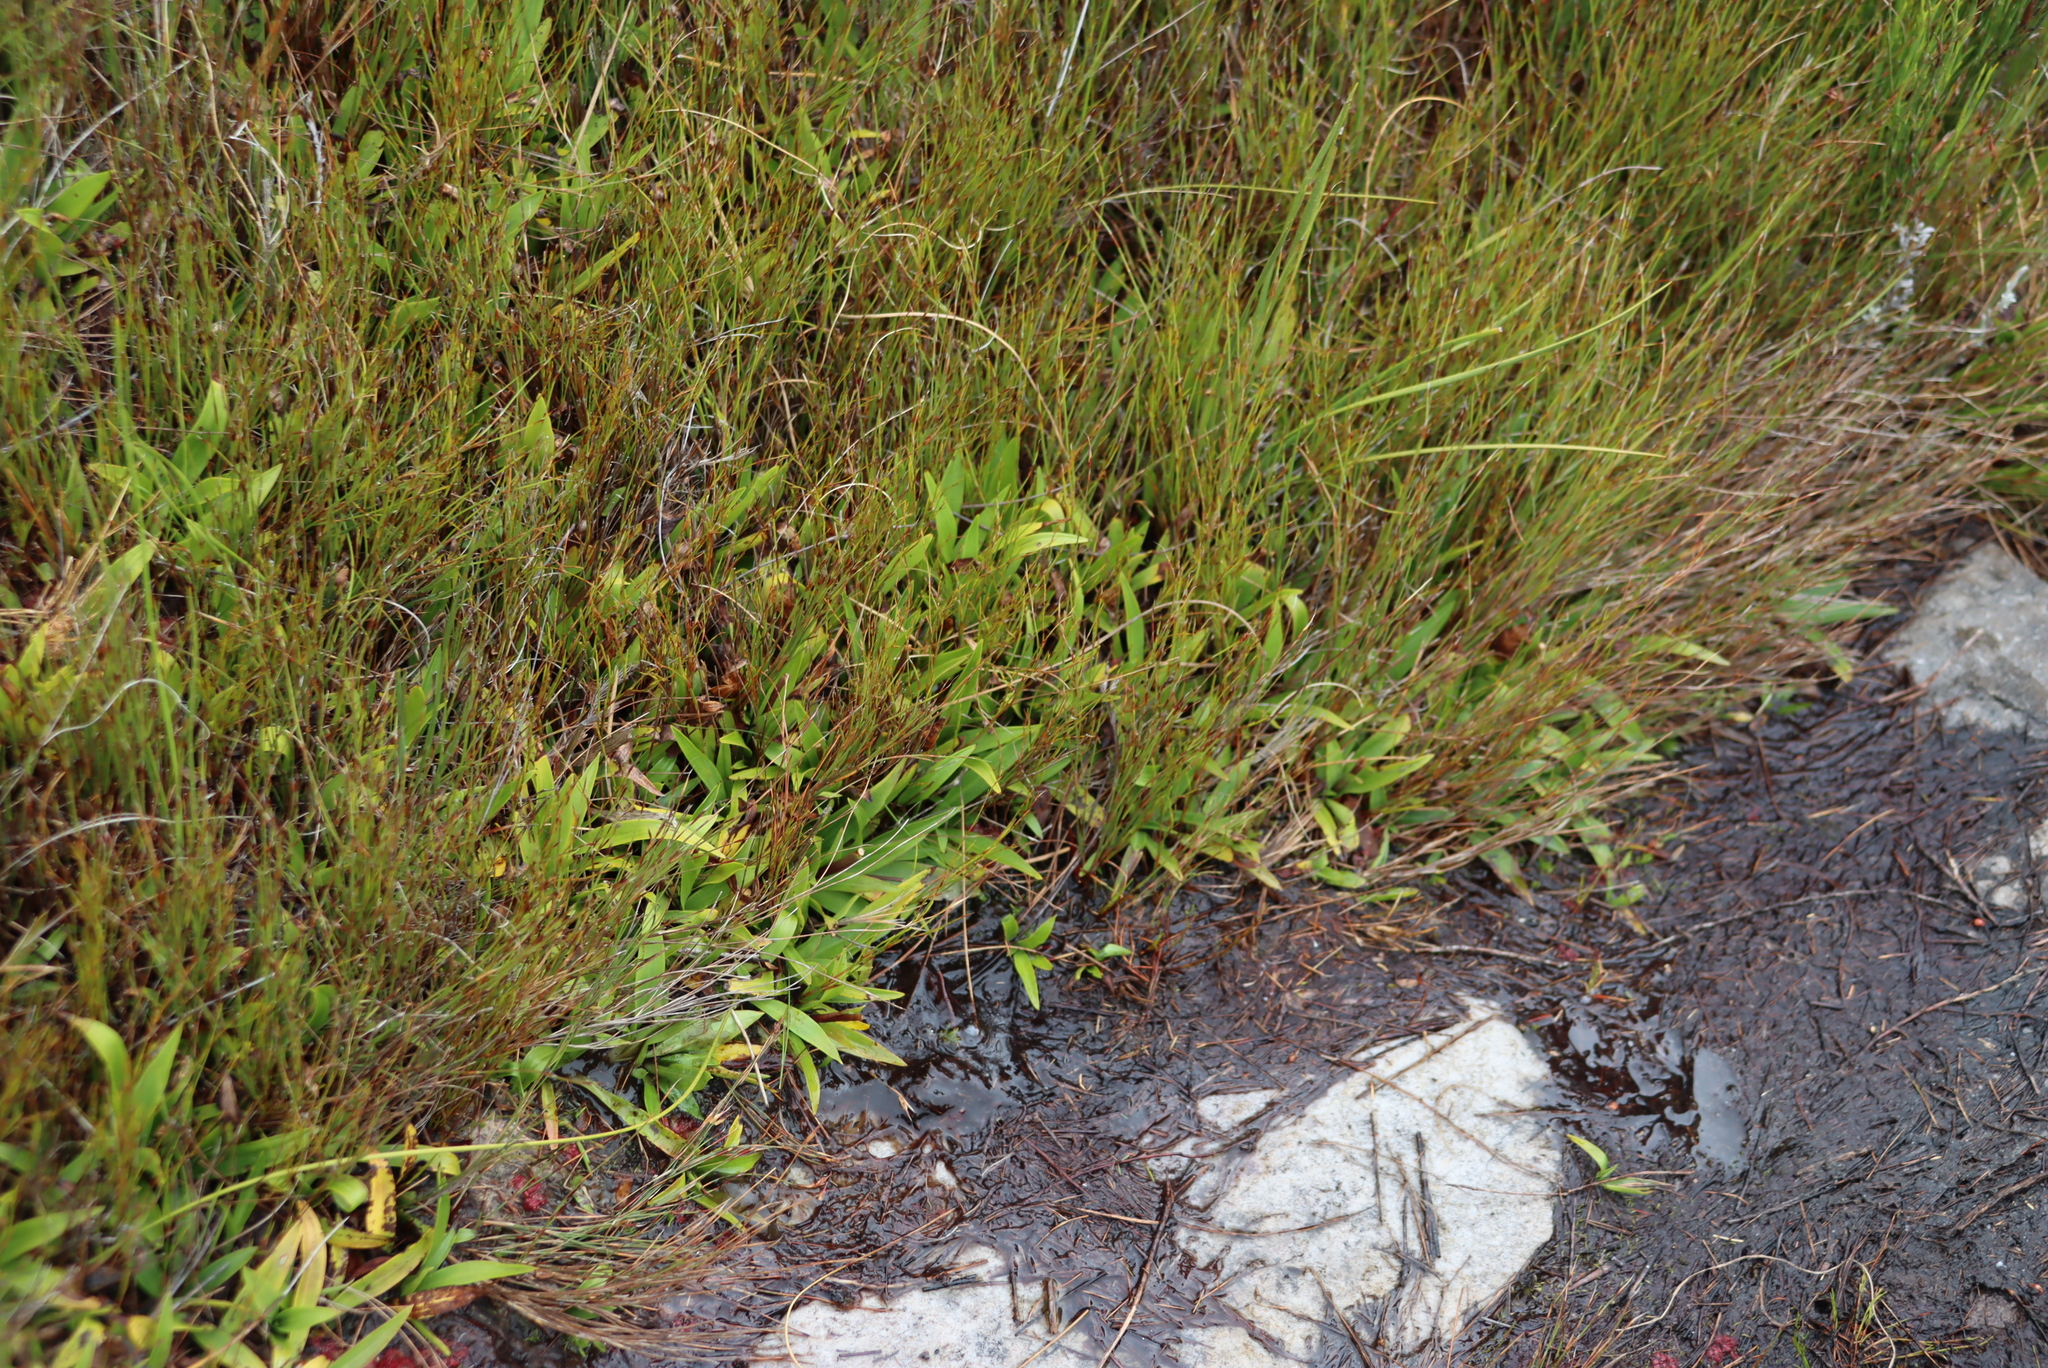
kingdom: Plantae
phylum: Tracheophyta
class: Liliopsida
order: Asparagales
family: Orchidaceae
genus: Disa
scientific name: Disa aurata
